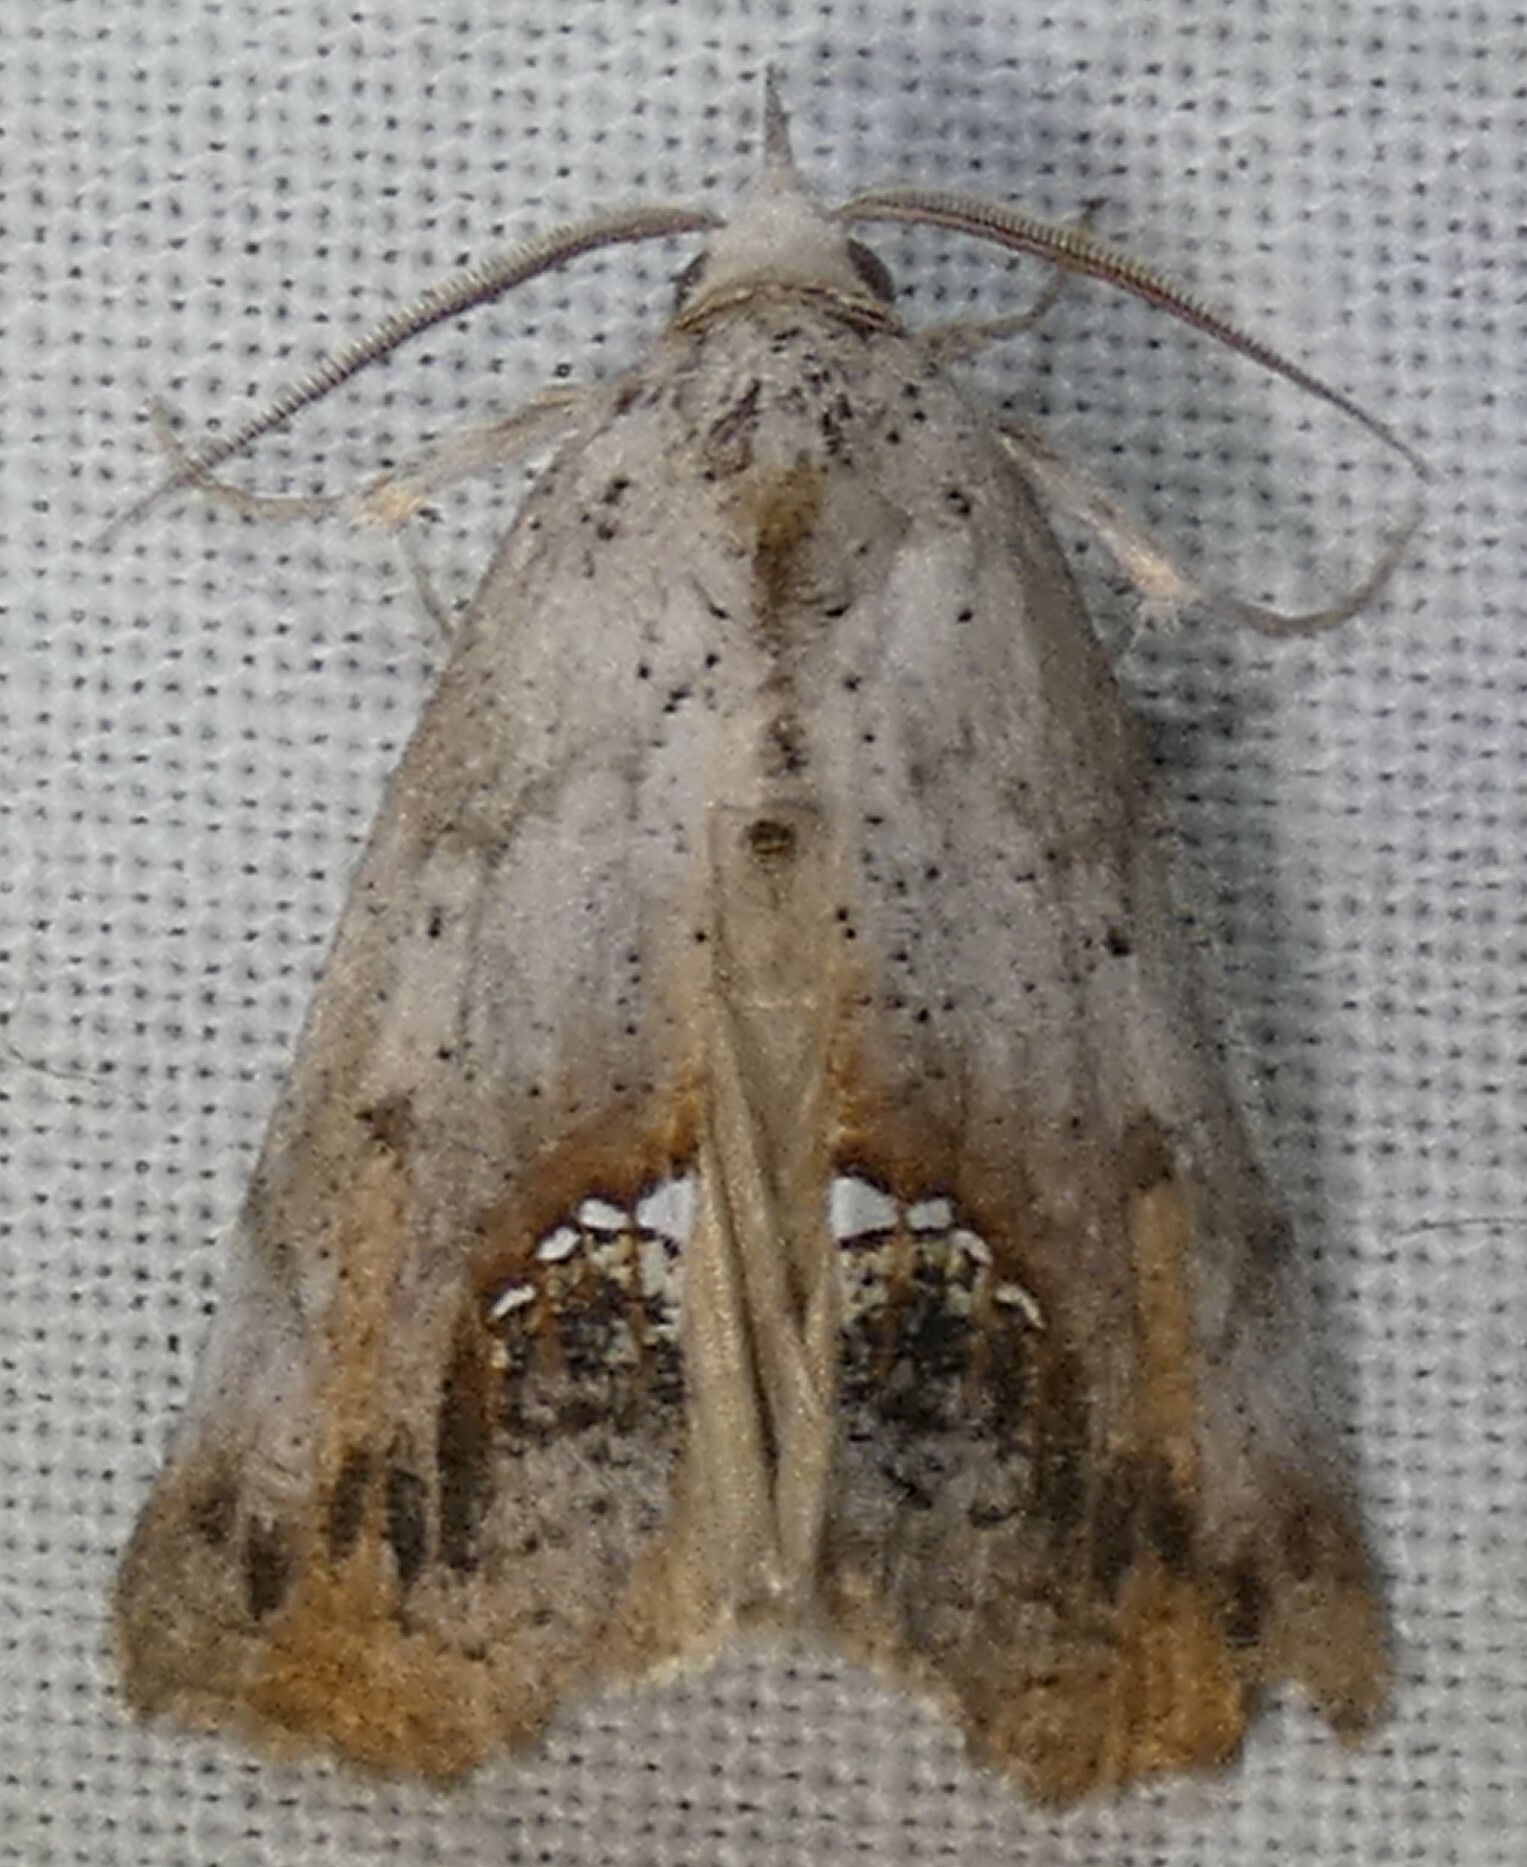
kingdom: Animalia
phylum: Arthropoda
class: Insecta
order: Lepidoptera
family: Erebidae
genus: Hypsoropha
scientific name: Hypsoropha hormos
